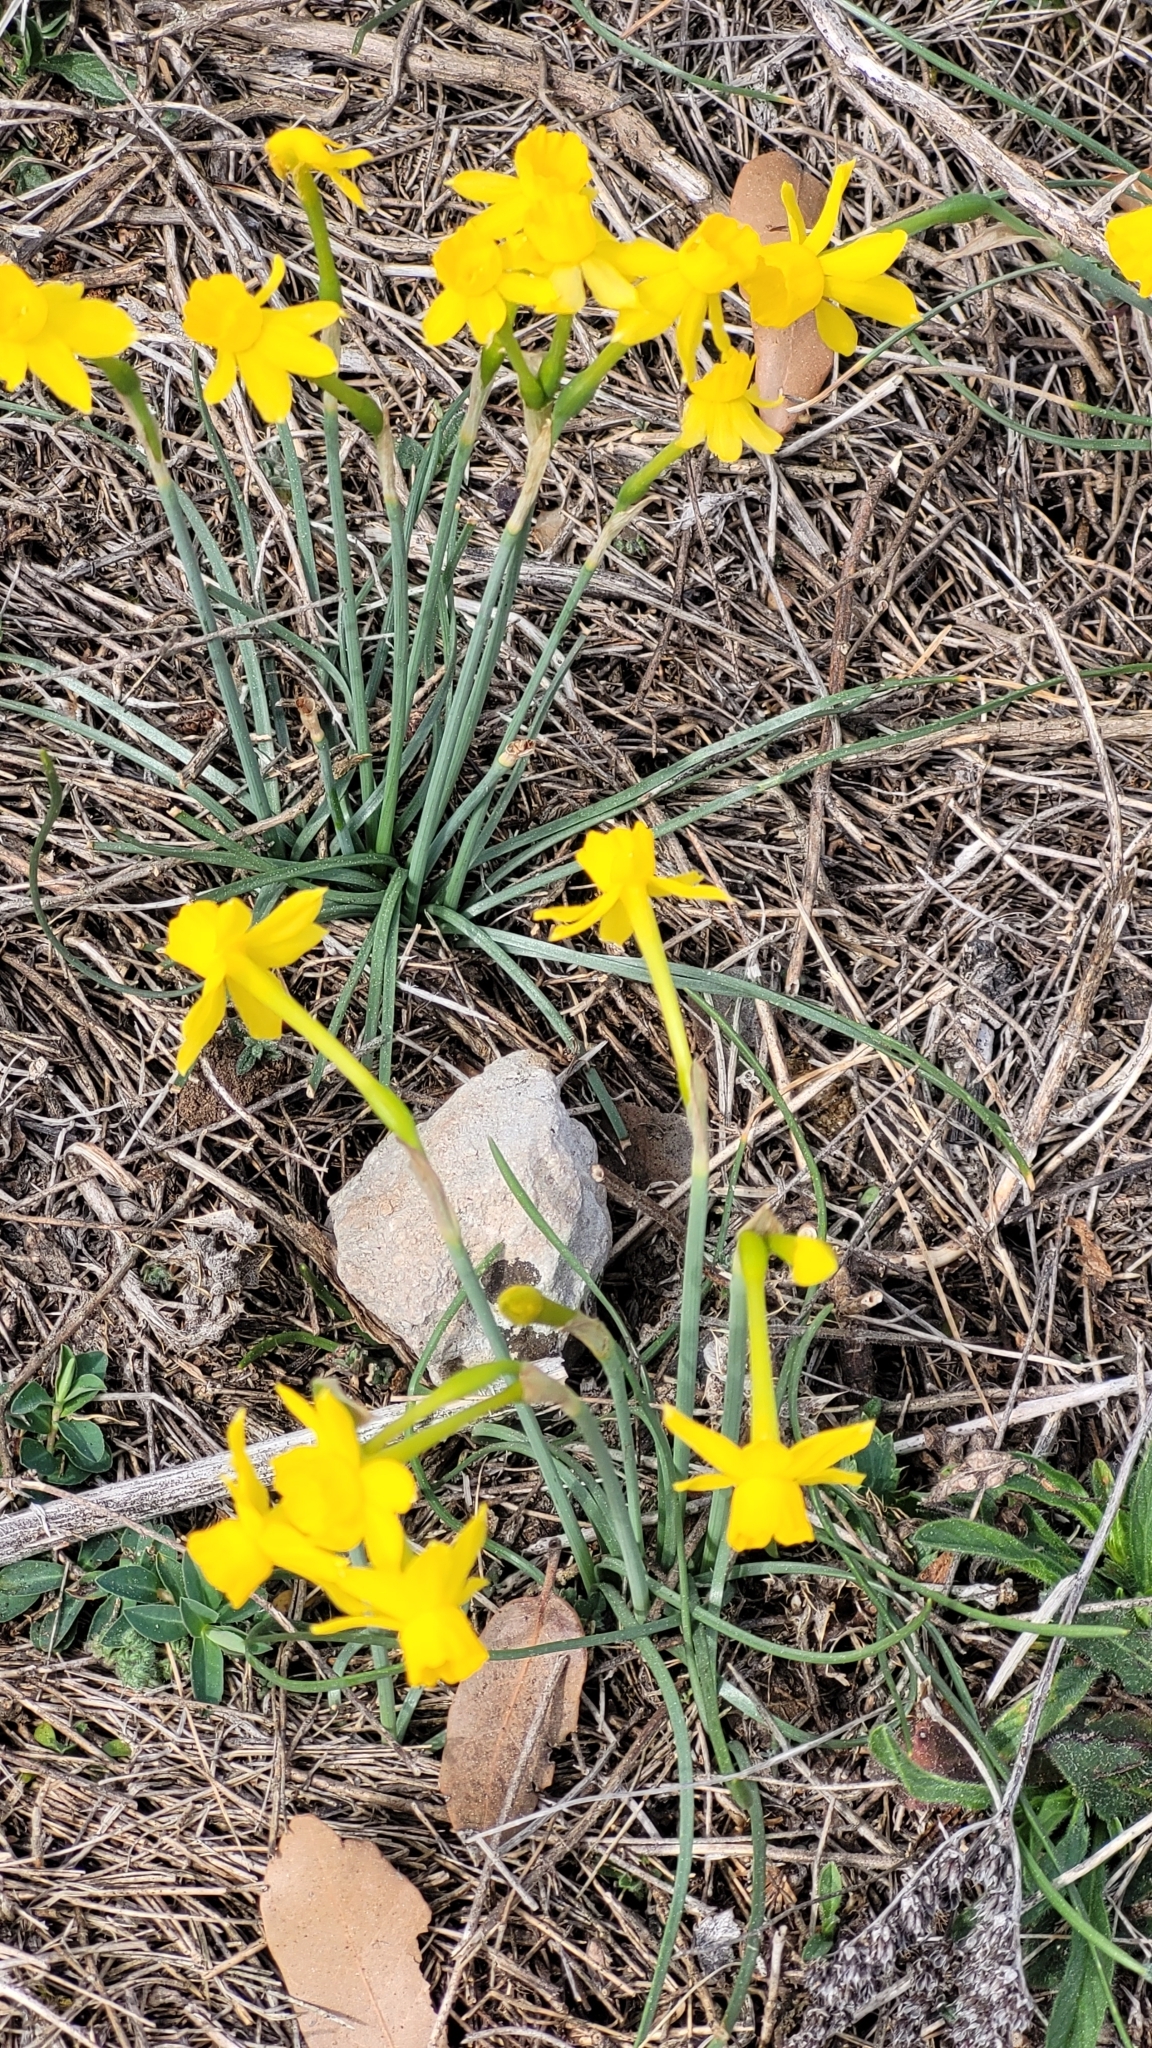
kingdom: Plantae
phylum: Tracheophyta
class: Liliopsida
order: Asparagales
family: Amaryllidaceae
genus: Narcissus
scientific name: Narcissus assoanus
